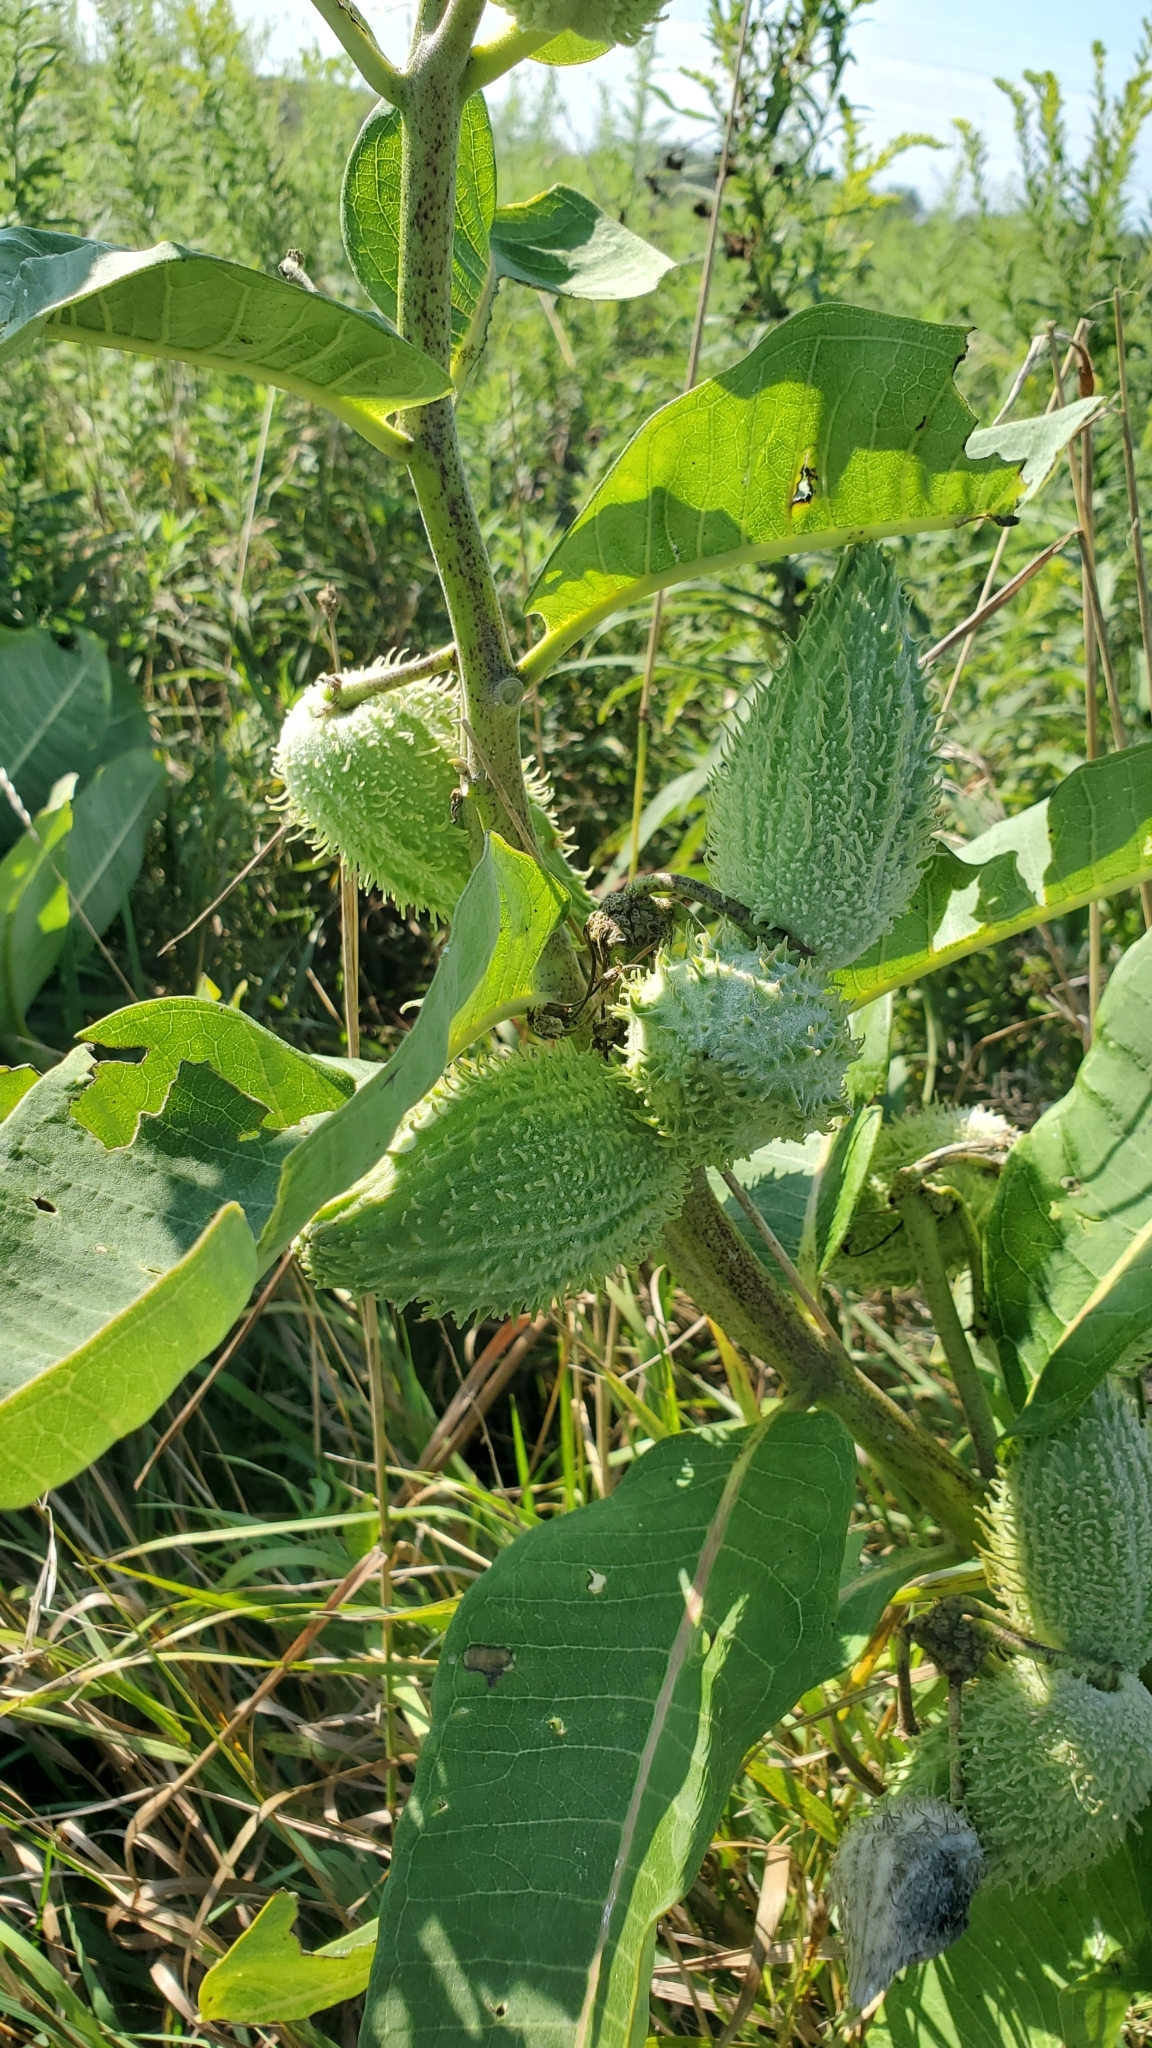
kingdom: Plantae
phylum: Tracheophyta
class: Magnoliopsida
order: Gentianales
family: Apocynaceae
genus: Asclepias
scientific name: Asclepias syriaca
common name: Common milkweed
